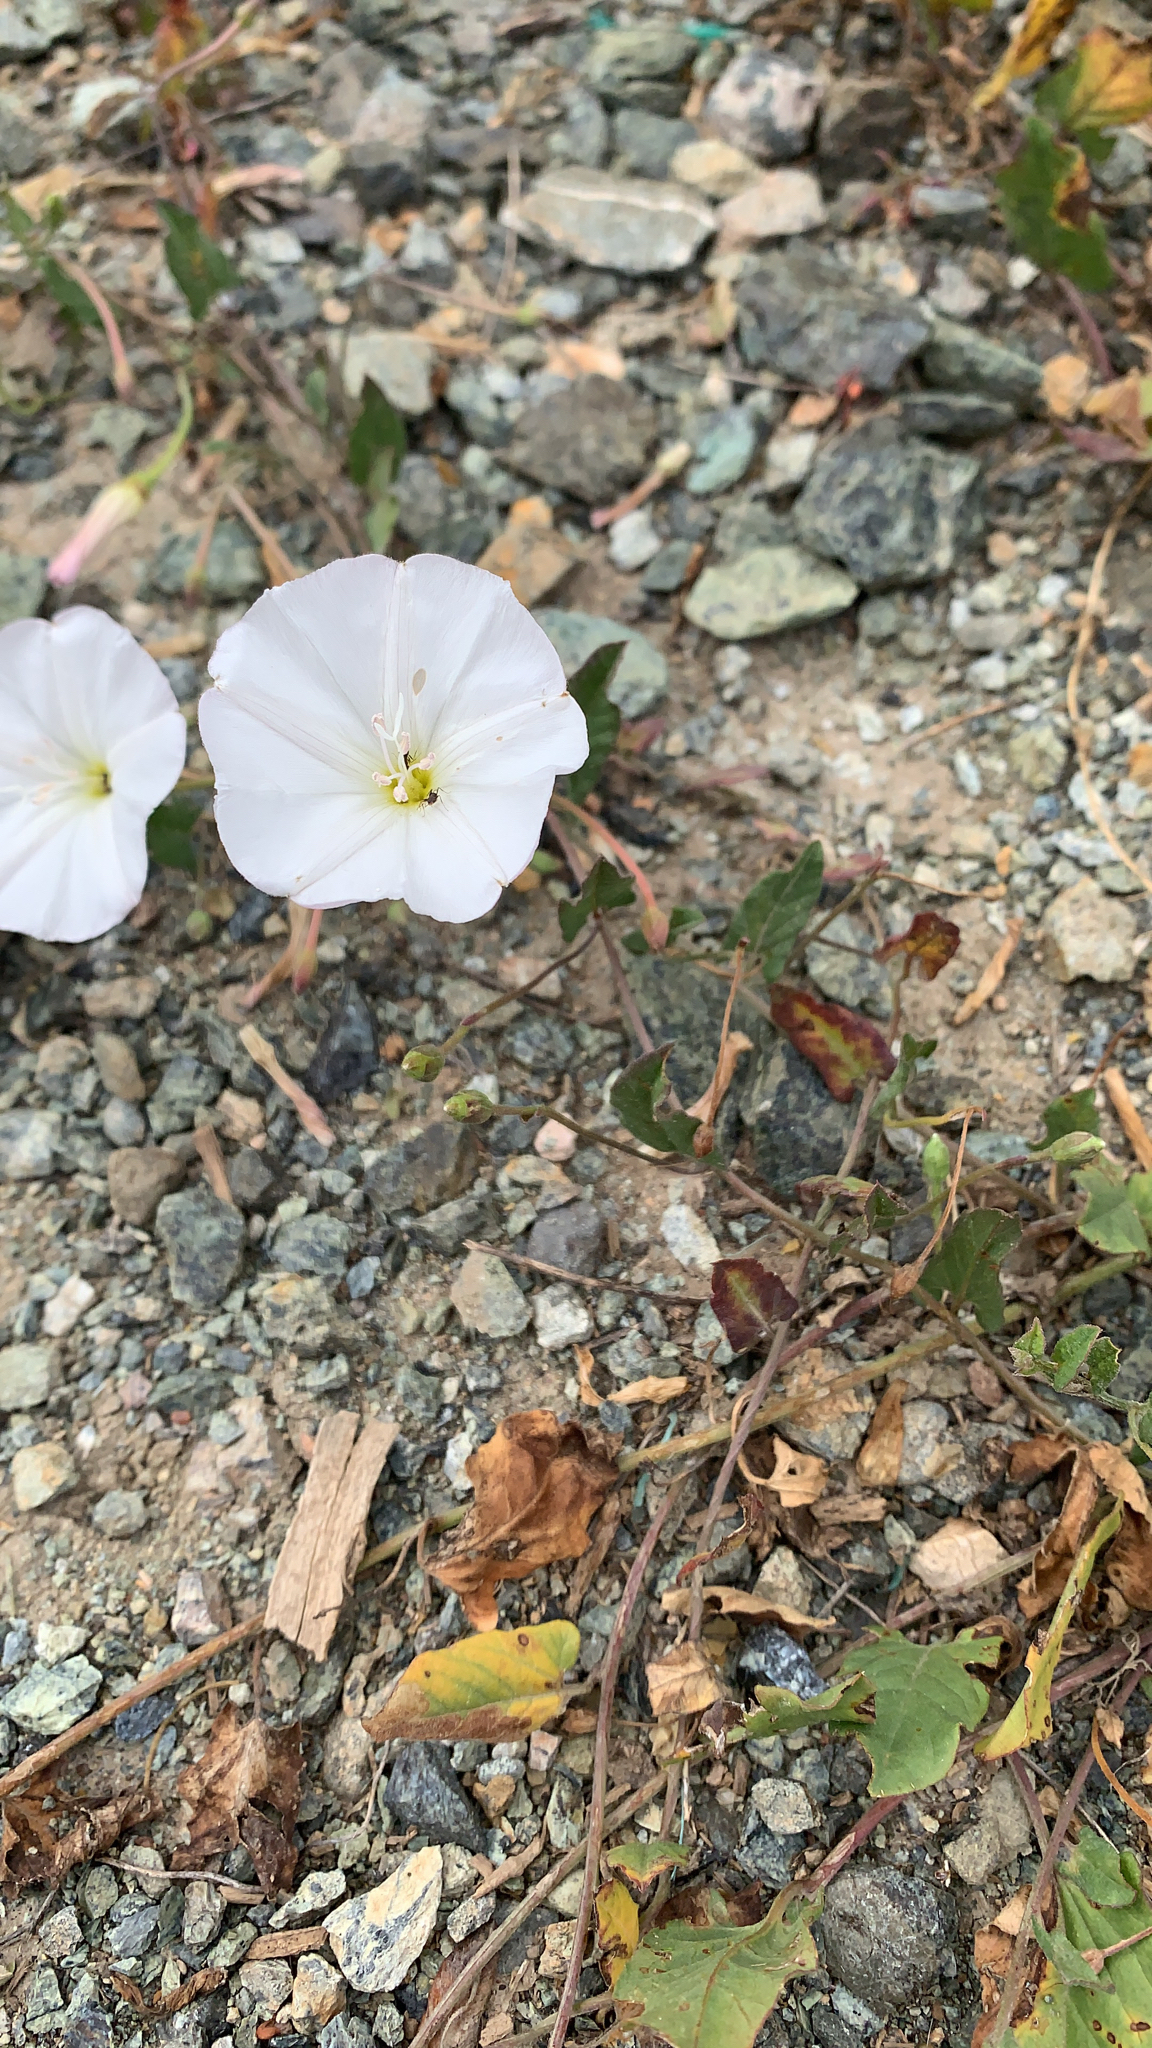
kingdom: Plantae
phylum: Tracheophyta
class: Magnoliopsida
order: Solanales
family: Convolvulaceae
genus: Convolvulus
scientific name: Convolvulus arvensis
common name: Field bindweed
